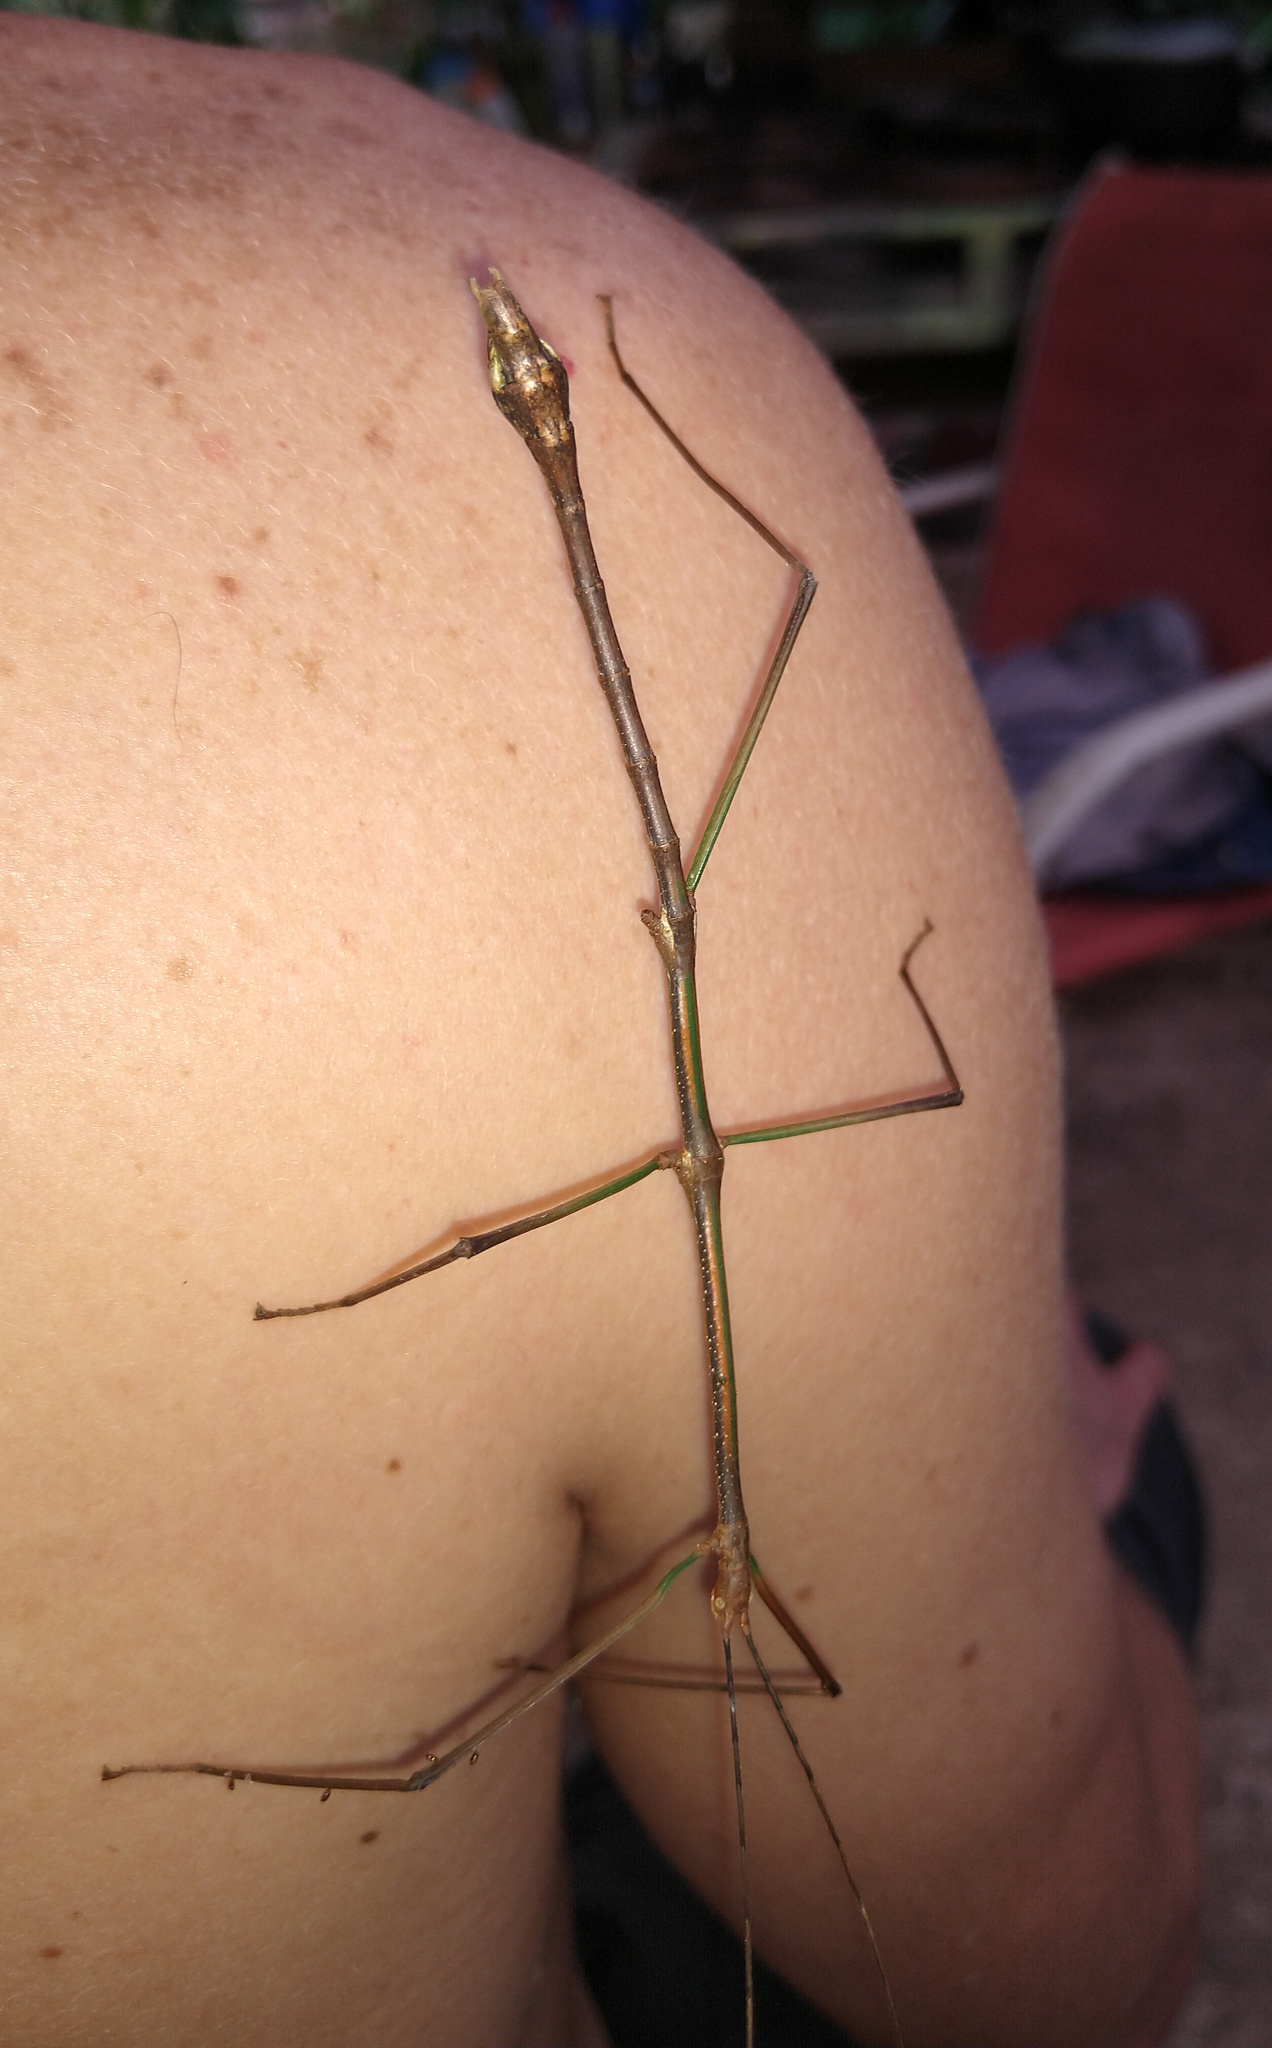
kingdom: Animalia
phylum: Arthropoda
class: Insecta
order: Phasmida
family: Heteronemiidae
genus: Canuleius
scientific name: Canuleius grandis
